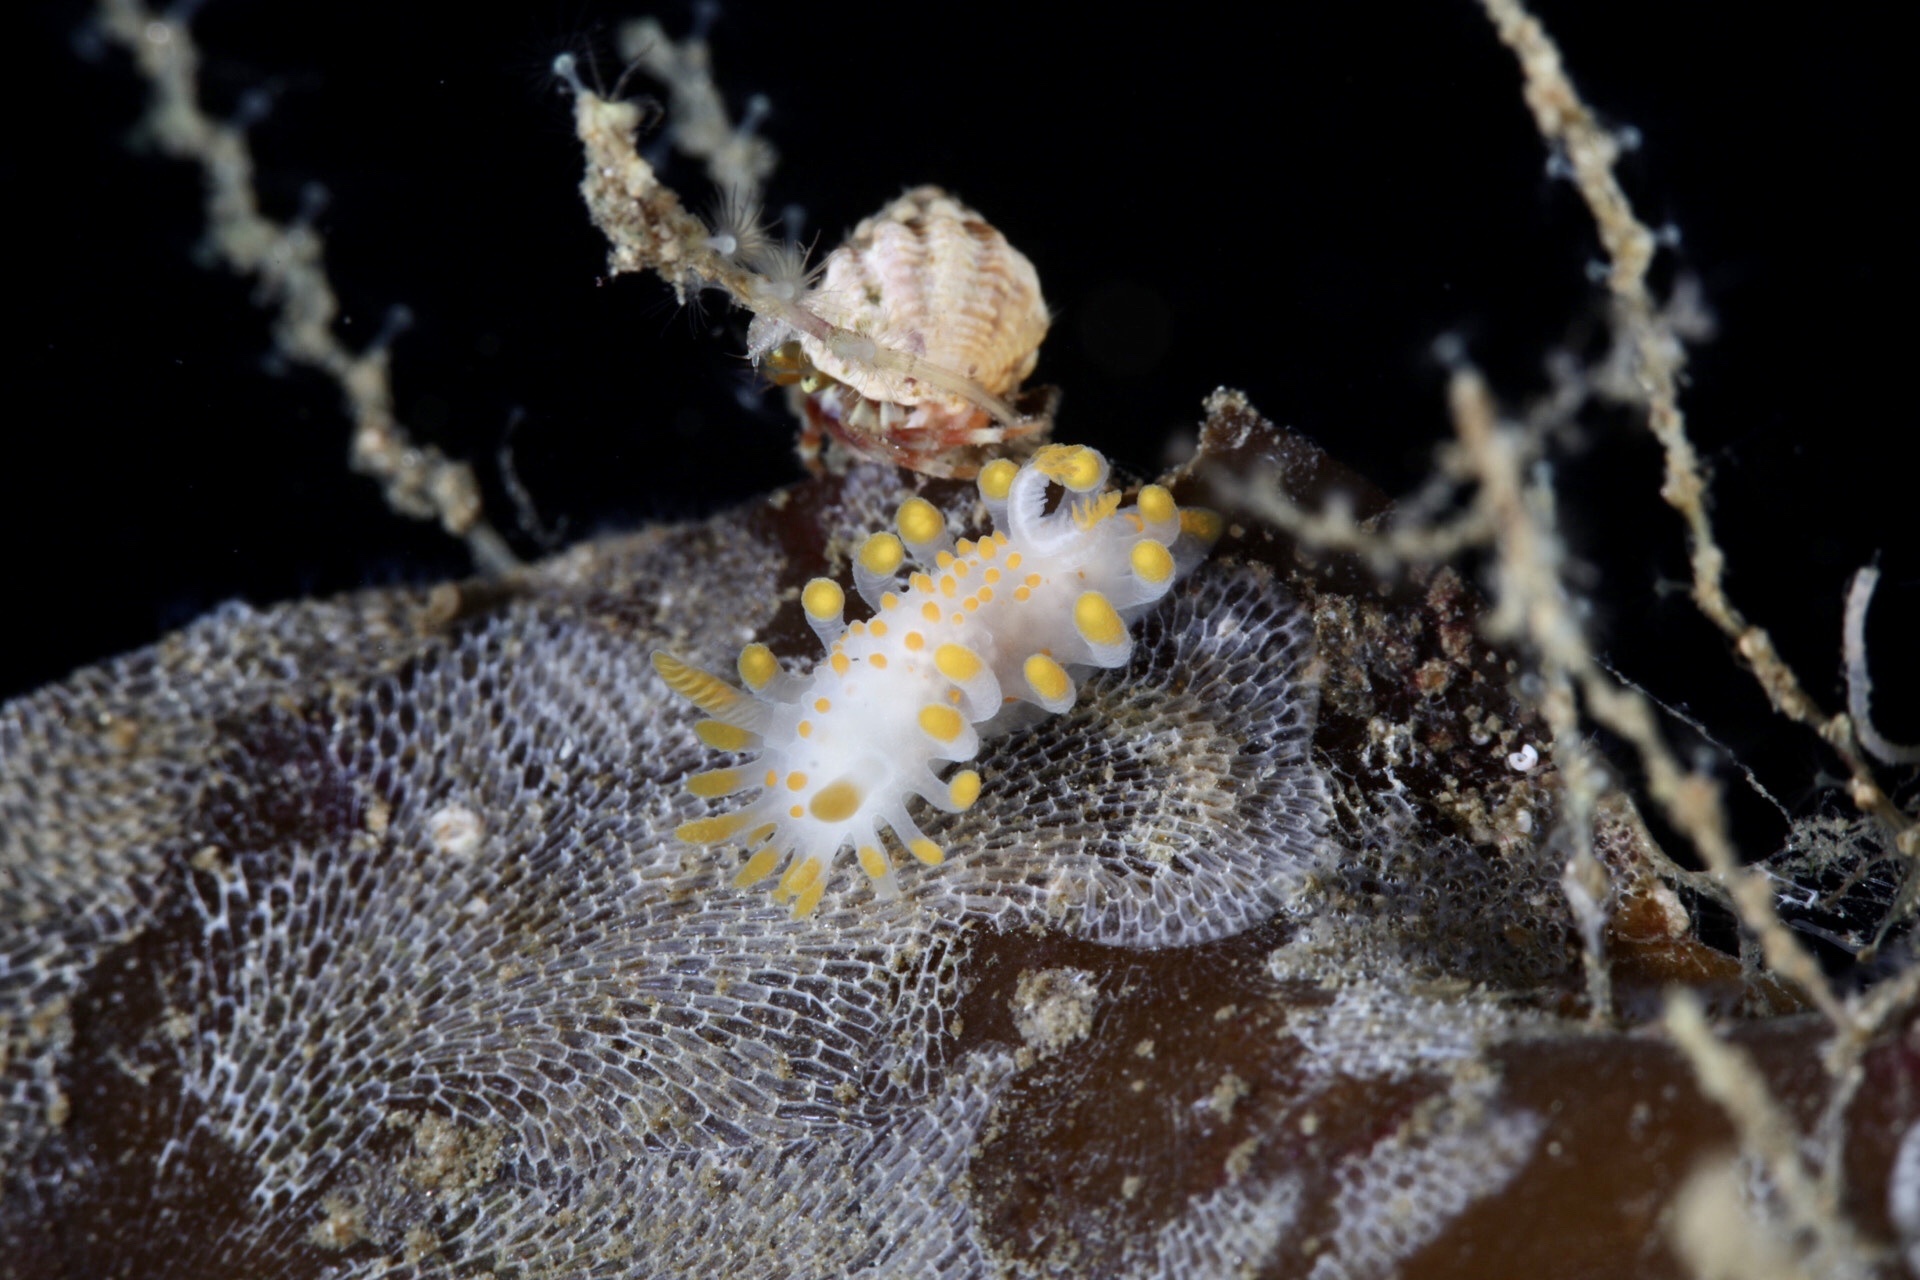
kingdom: Animalia
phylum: Mollusca
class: Gastropoda
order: Nudibranchia
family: Polyceridae
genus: Limacia
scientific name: Limacia clavigera
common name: Orange-clubbed sea slug
